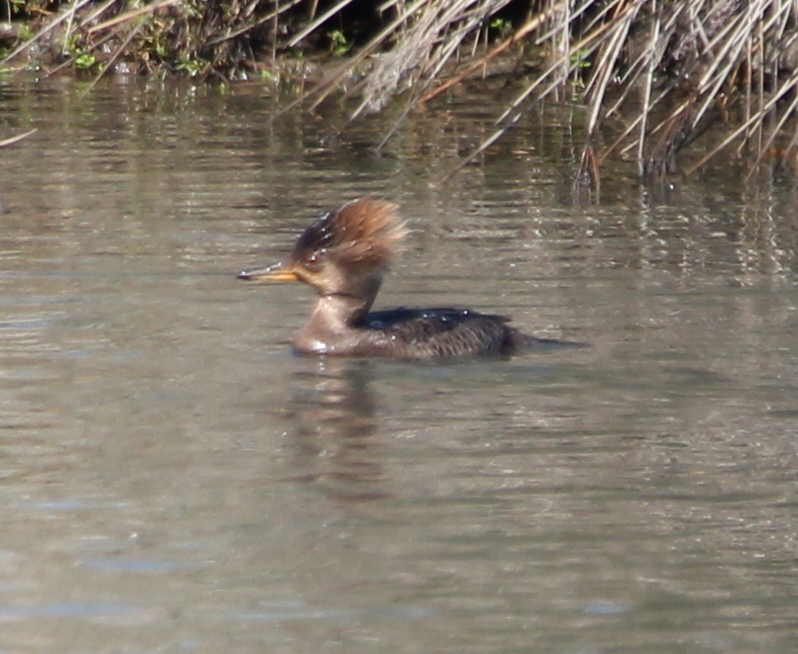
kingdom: Animalia
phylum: Chordata
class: Aves
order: Anseriformes
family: Anatidae
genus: Lophodytes
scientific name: Lophodytes cucullatus
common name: Hooded merganser
